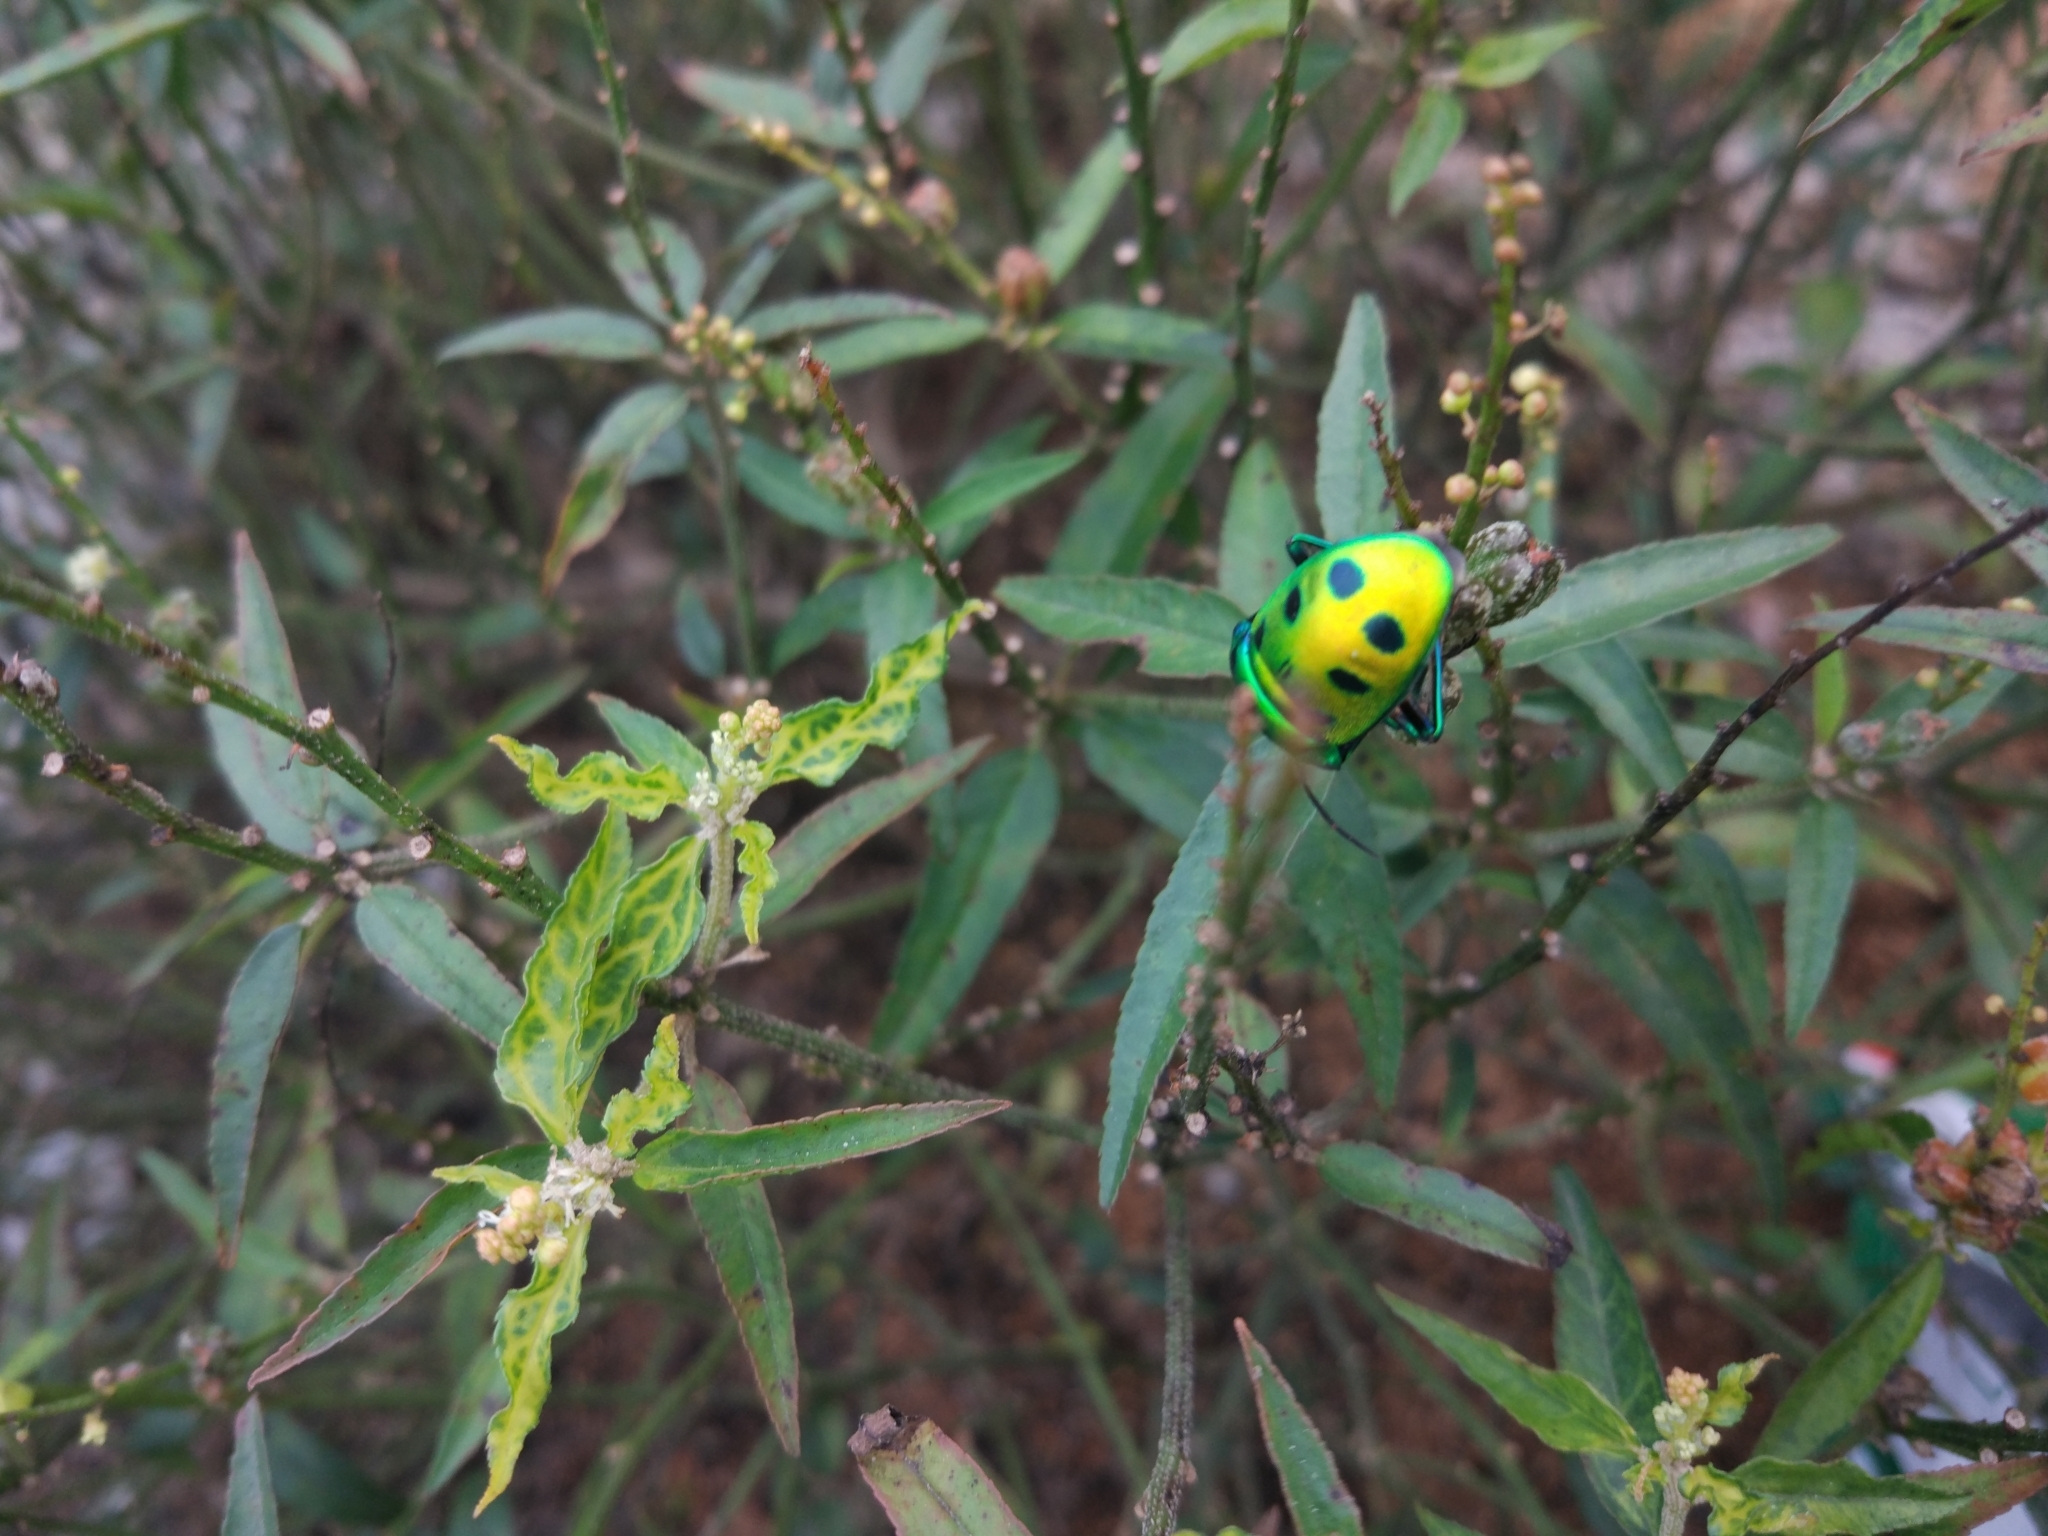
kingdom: Animalia
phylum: Arthropoda
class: Insecta
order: Hemiptera
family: Scutelleridae
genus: Chrysocoris
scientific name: Chrysocoris purpureus
